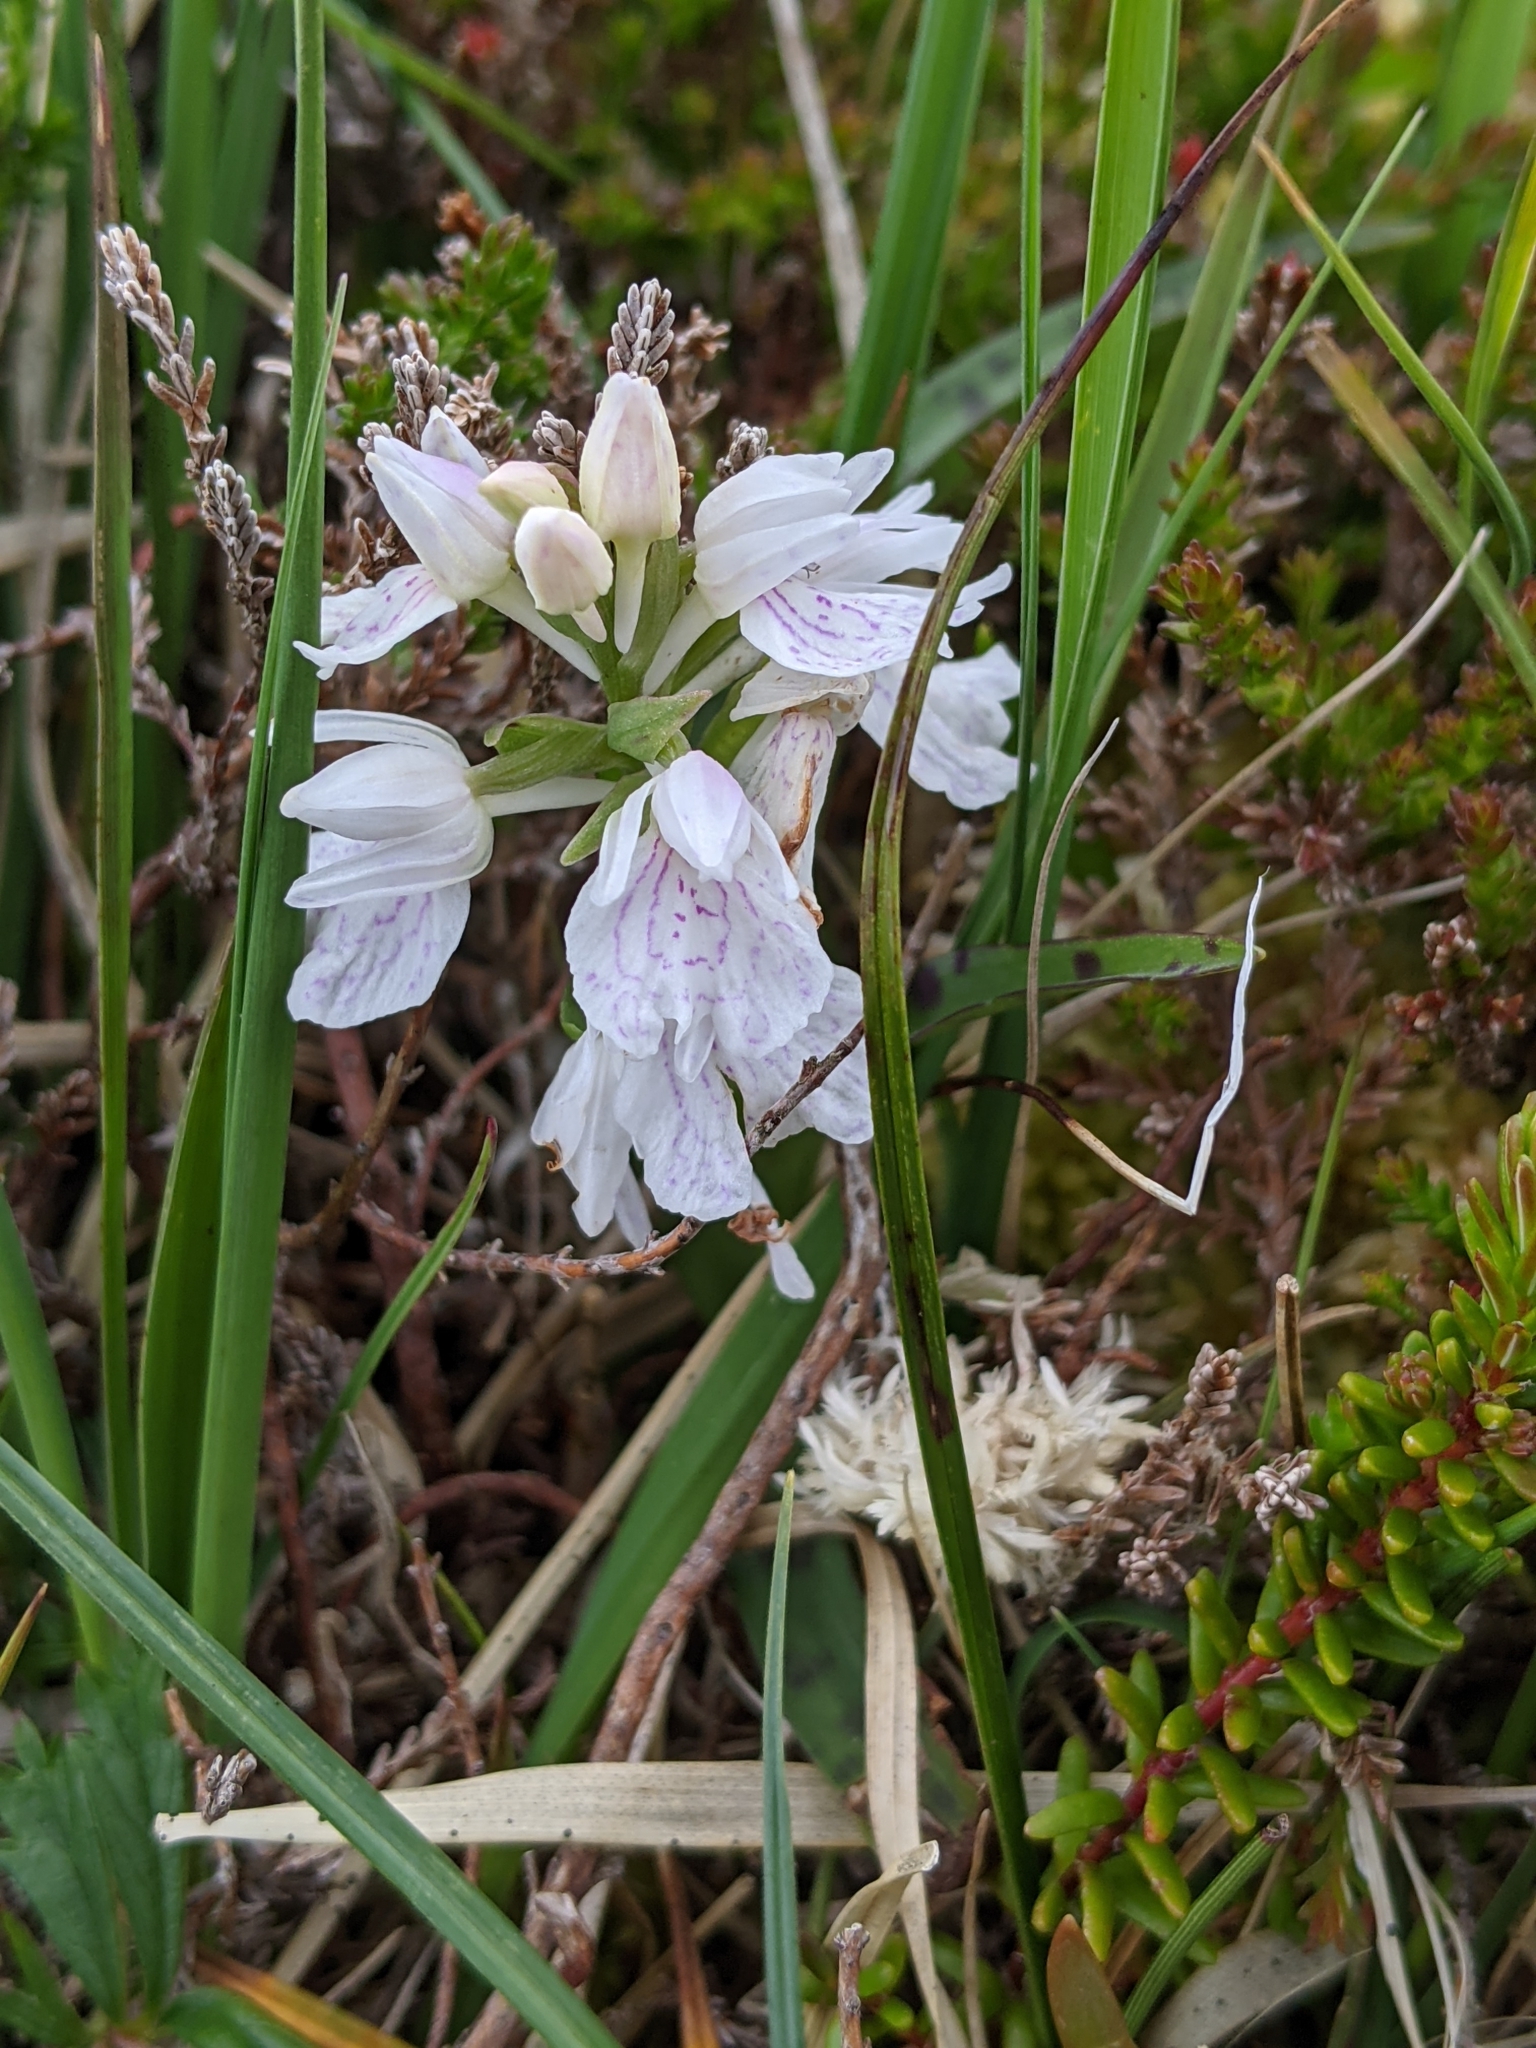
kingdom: Plantae
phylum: Tracheophyta
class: Liliopsida
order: Asparagales
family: Orchidaceae
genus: Dactylorhiza
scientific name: Dactylorhiza maculata
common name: Heath spotted-orchid
